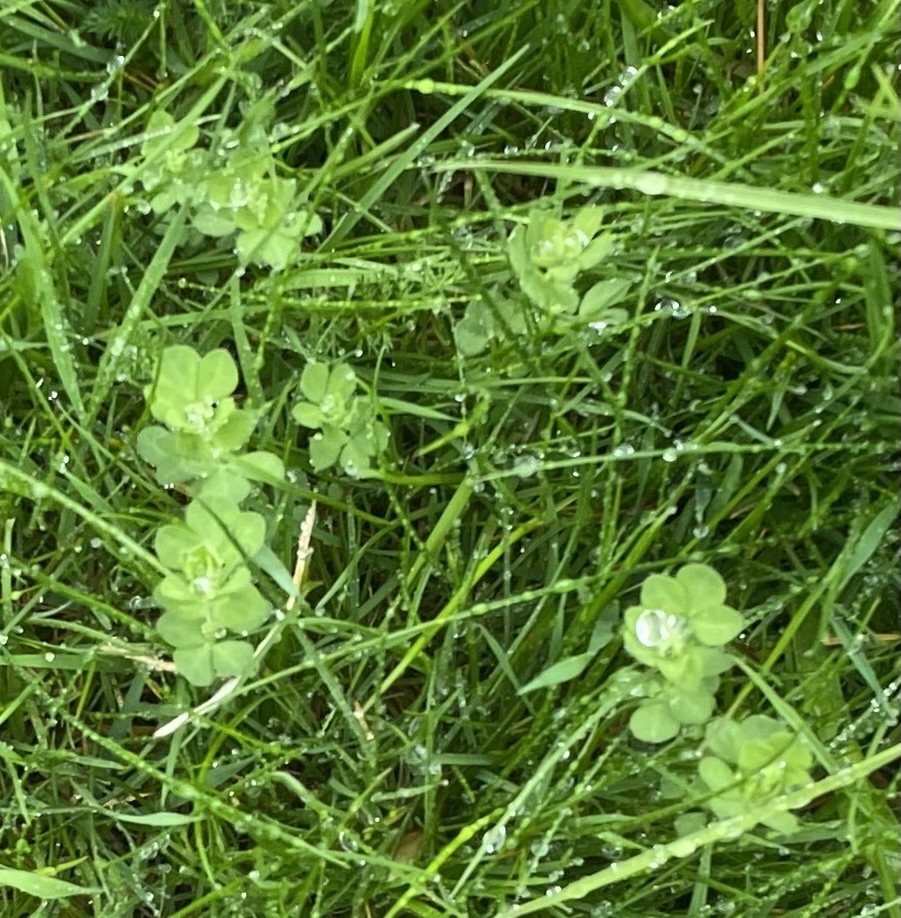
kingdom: Plantae
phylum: Tracheophyta
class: Magnoliopsida
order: Fabales
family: Fabaceae
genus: Lotus
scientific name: Lotus corniculatus
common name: Common bird's-foot-trefoil
